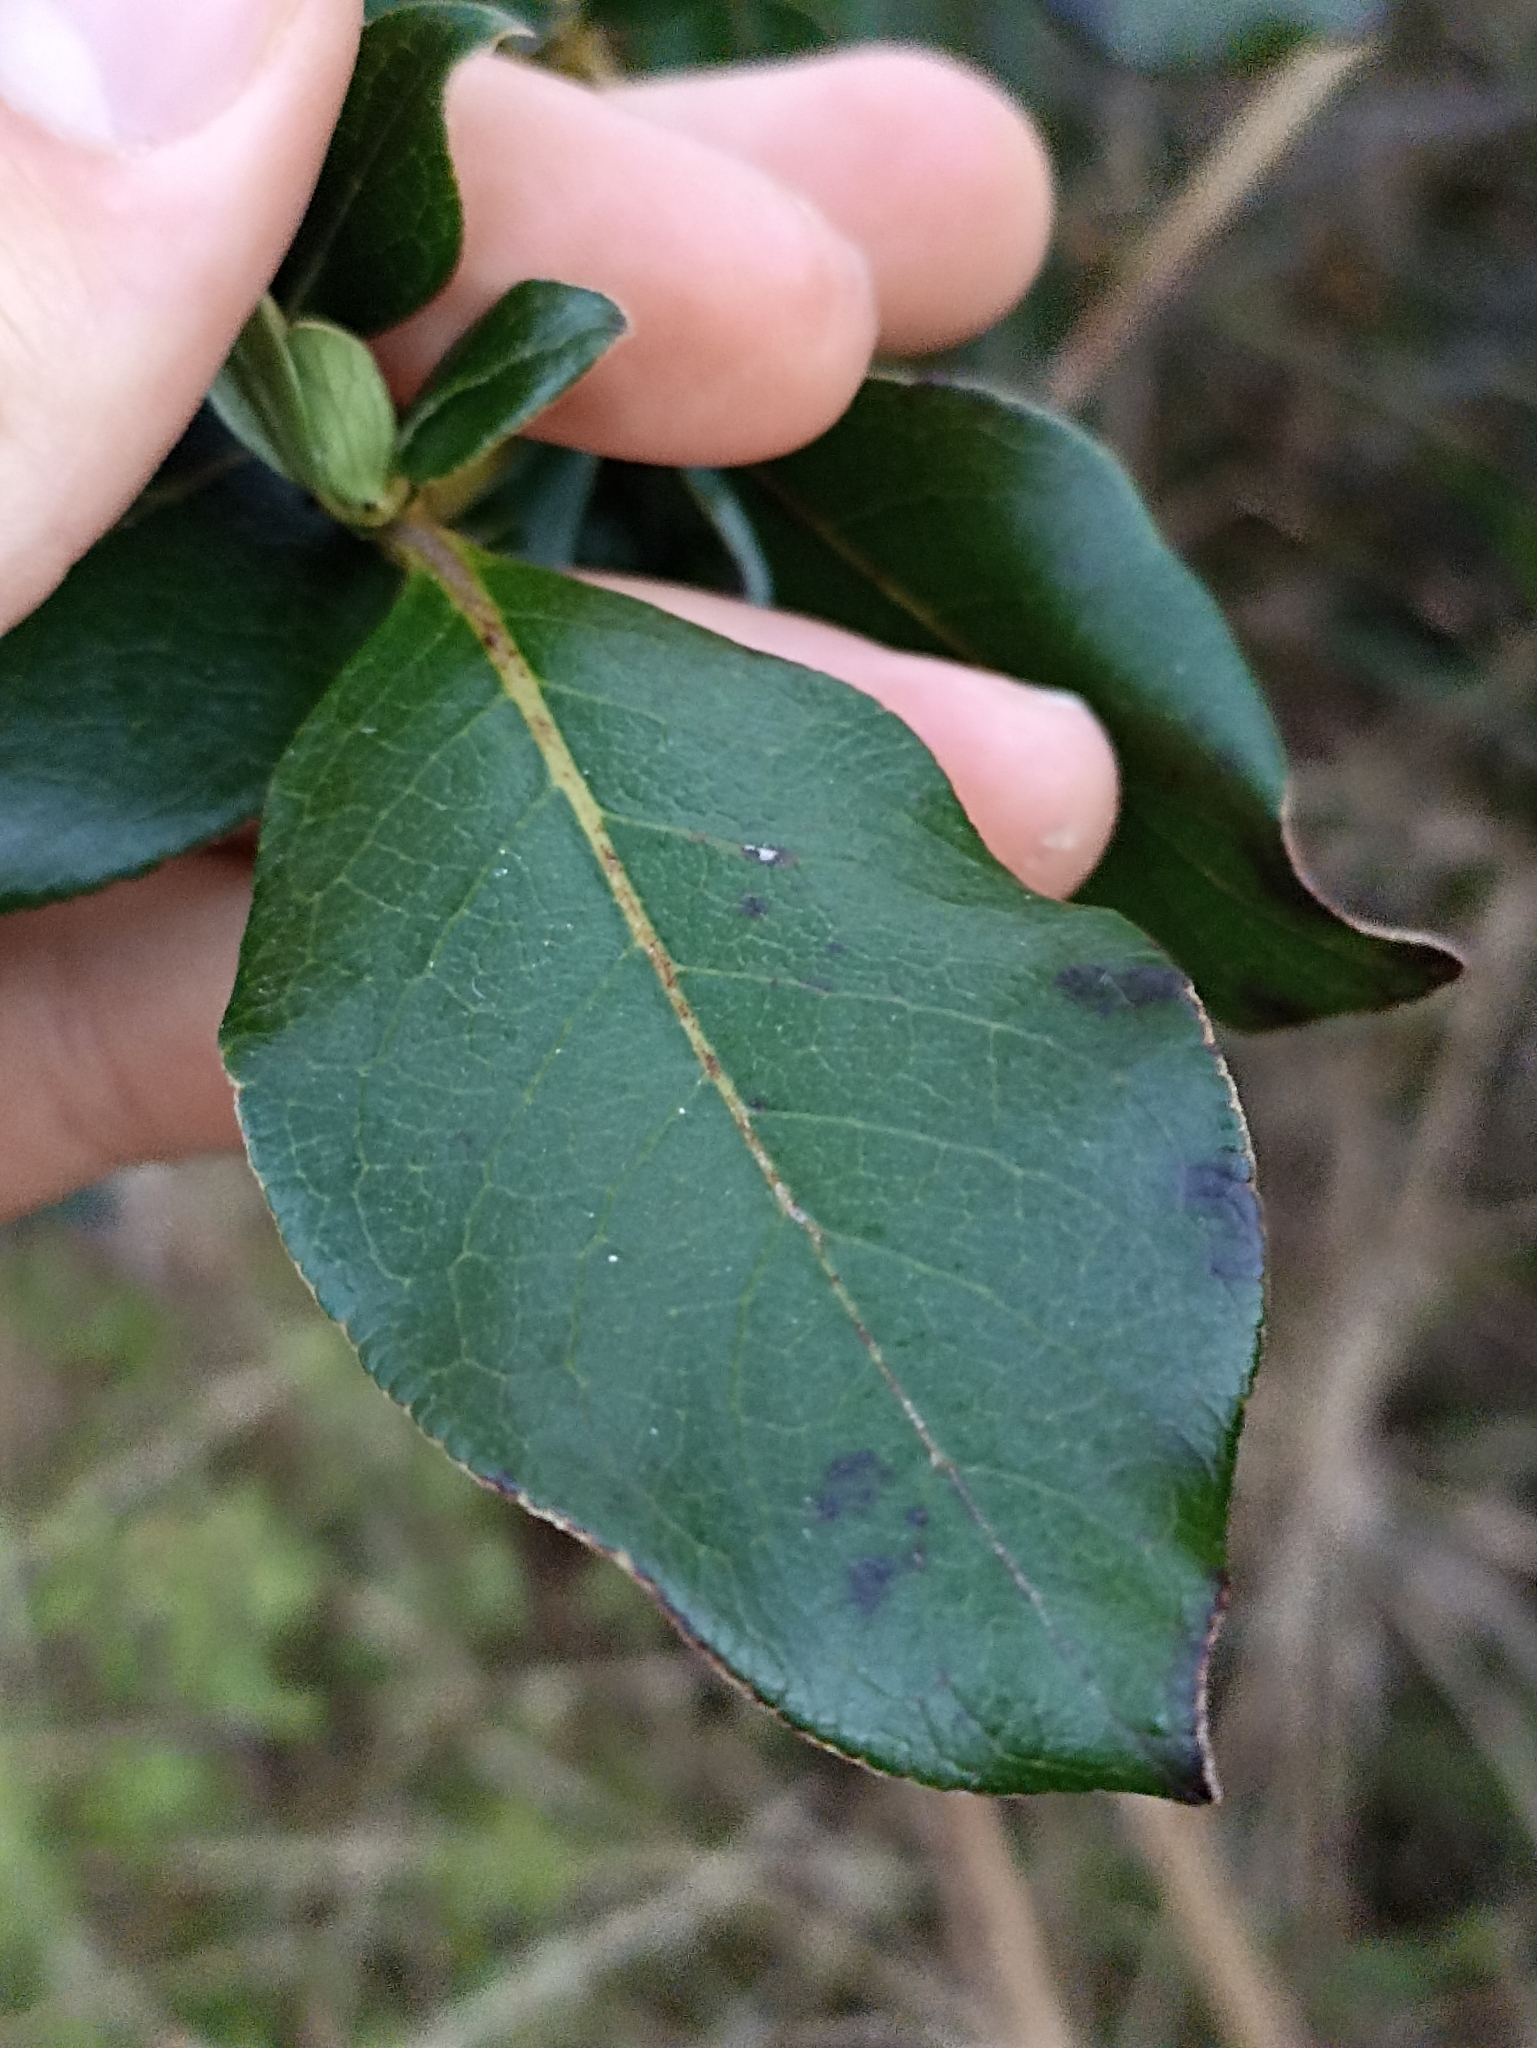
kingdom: Plantae
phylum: Tracheophyta
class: Magnoliopsida
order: Gentianales
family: Rubiaceae
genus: Coprosma
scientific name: Coprosma robusta
